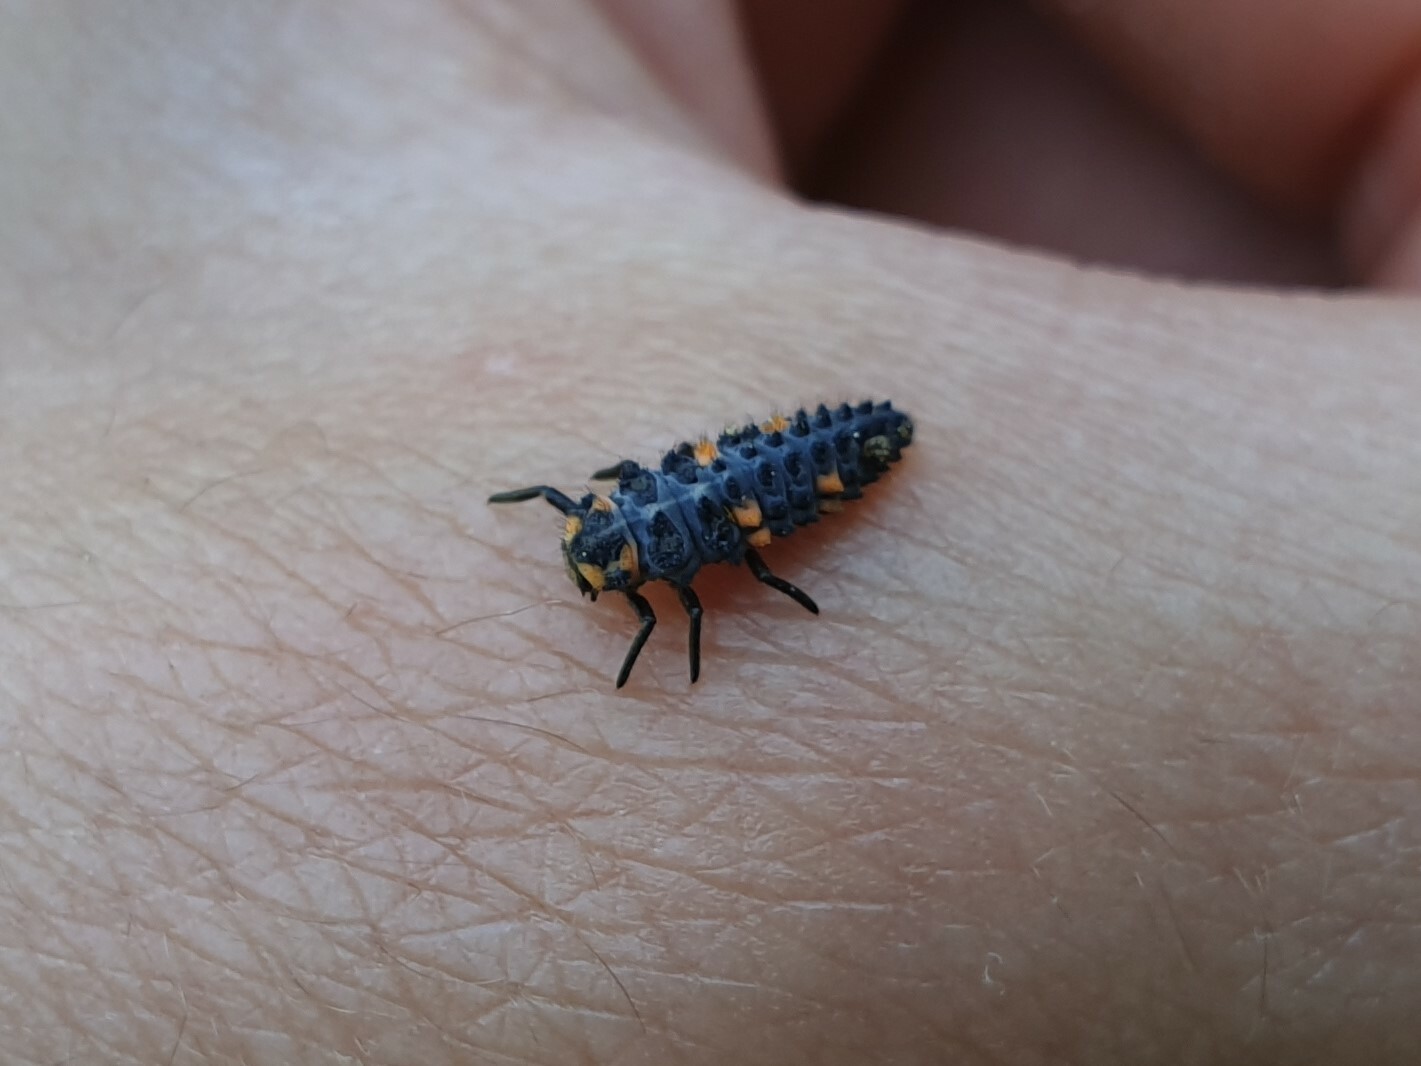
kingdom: Animalia
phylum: Arthropoda
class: Insecta
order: Coleoptera
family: Coccinellidae
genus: Coccinella
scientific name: Coccinella septempunctata
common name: Sevenspotted lady beetle
